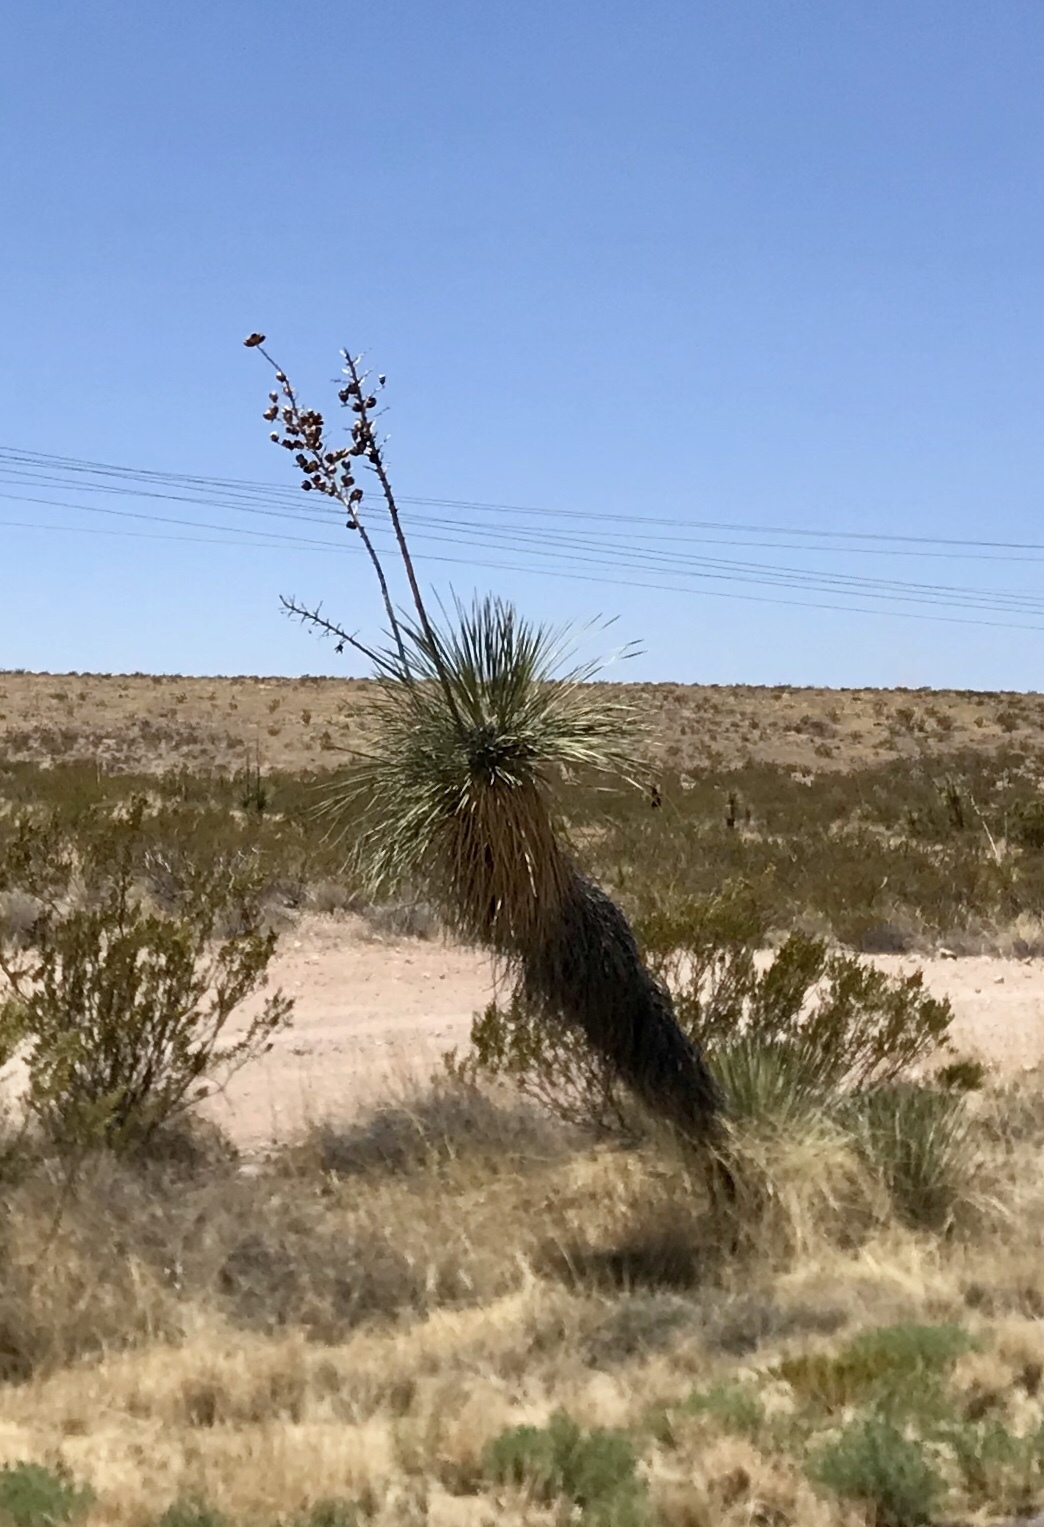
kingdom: Plantae
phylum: Tracheophyta
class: Liliopsida
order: Asparagales
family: Asparagaceae
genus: Yucca
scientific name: Yucca elata
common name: Palmella
